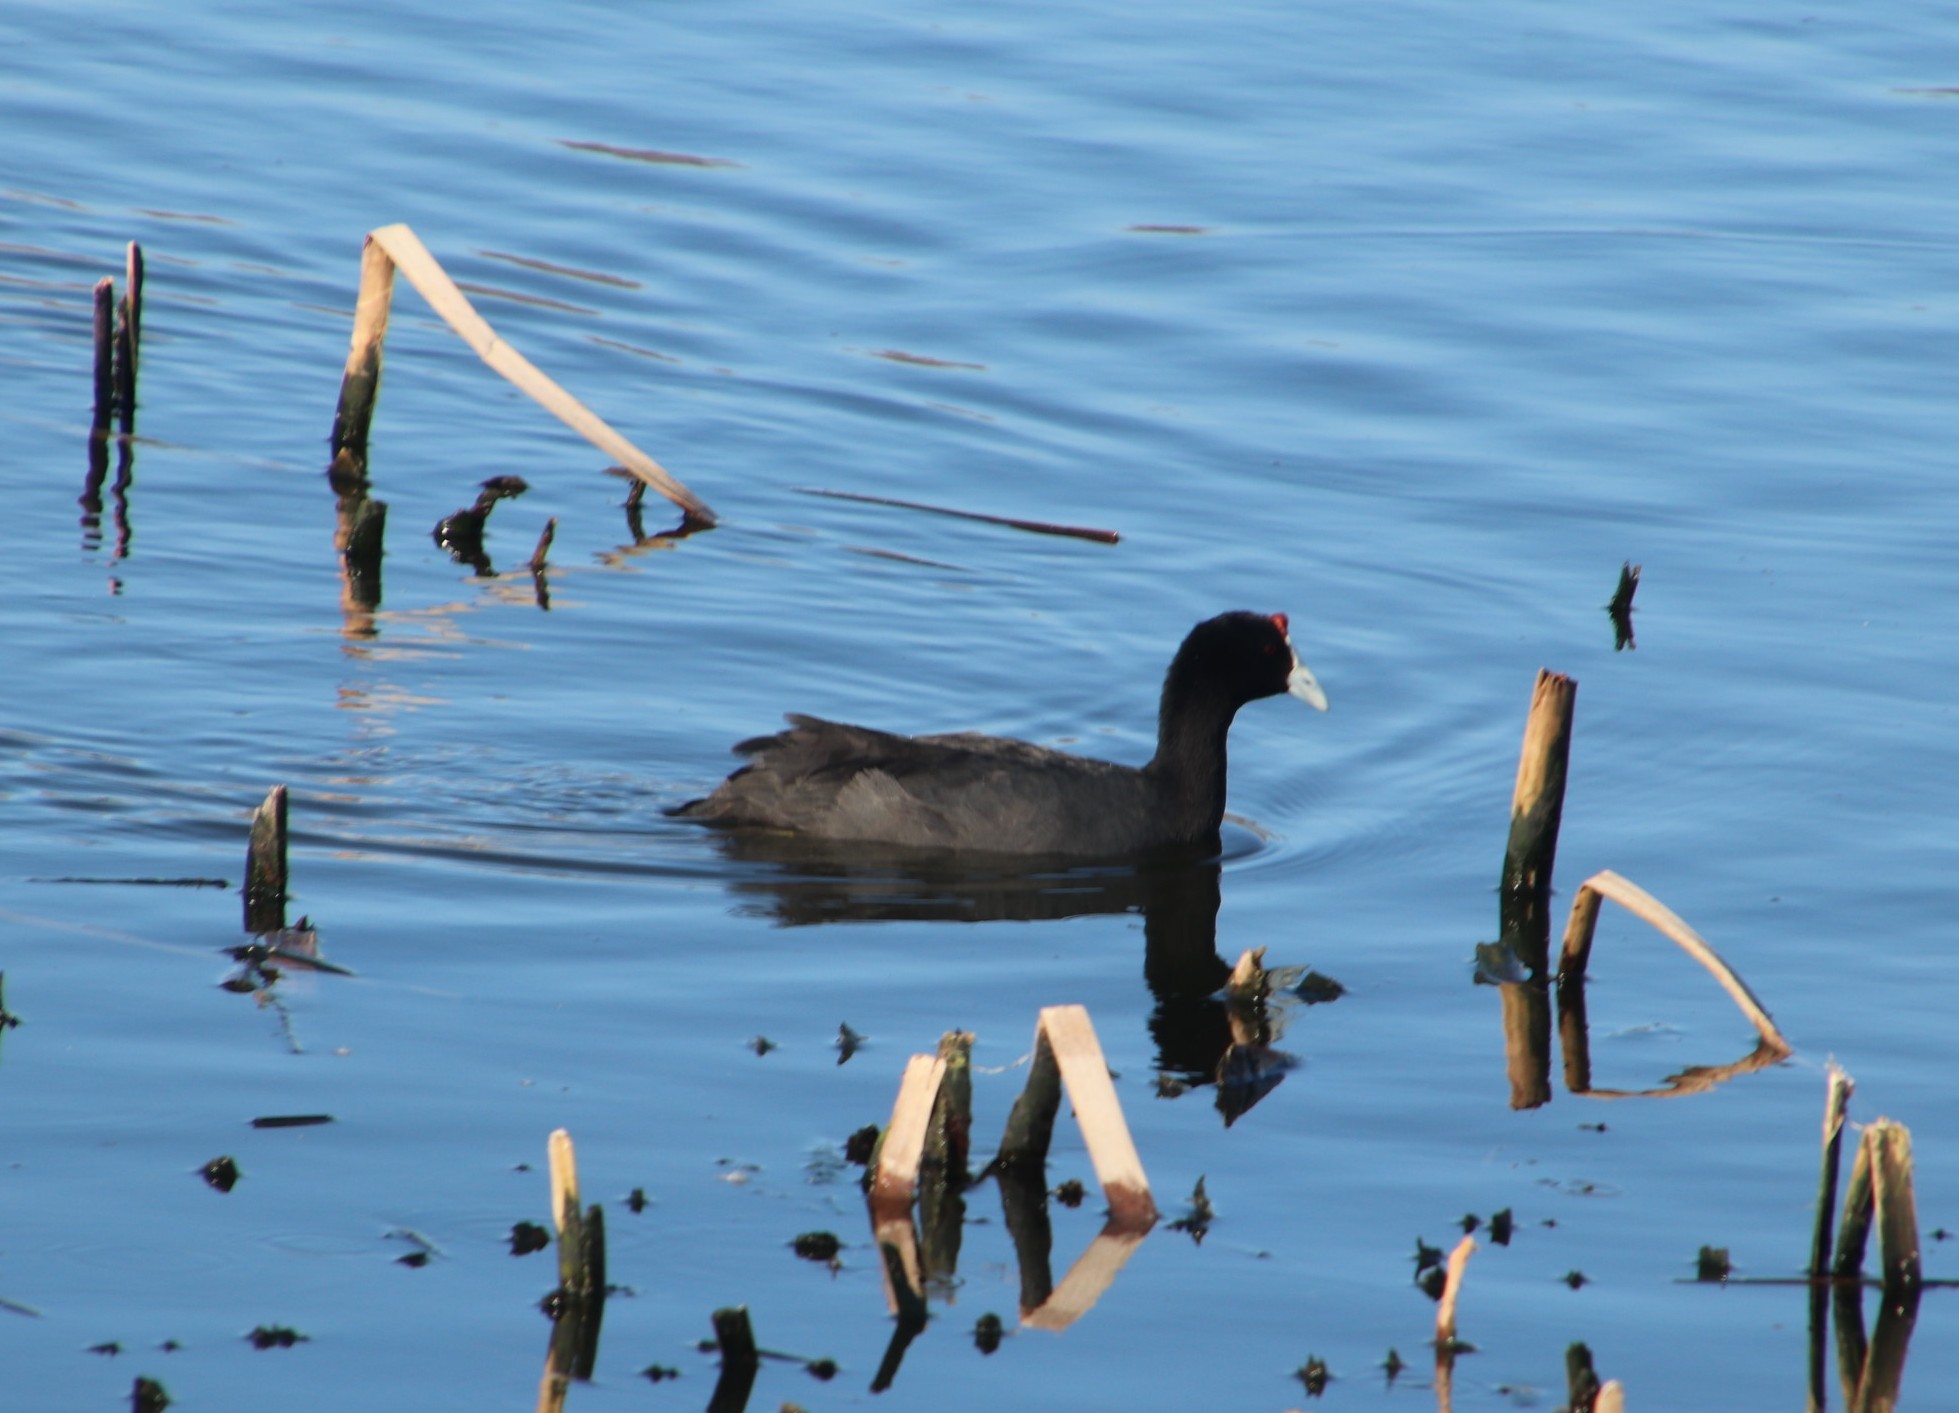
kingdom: Animalia
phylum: Chordata
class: Aves
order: Gruiformes
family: Rallidae
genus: Fulica
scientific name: Fulica cristata
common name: Red-knobbed coot
